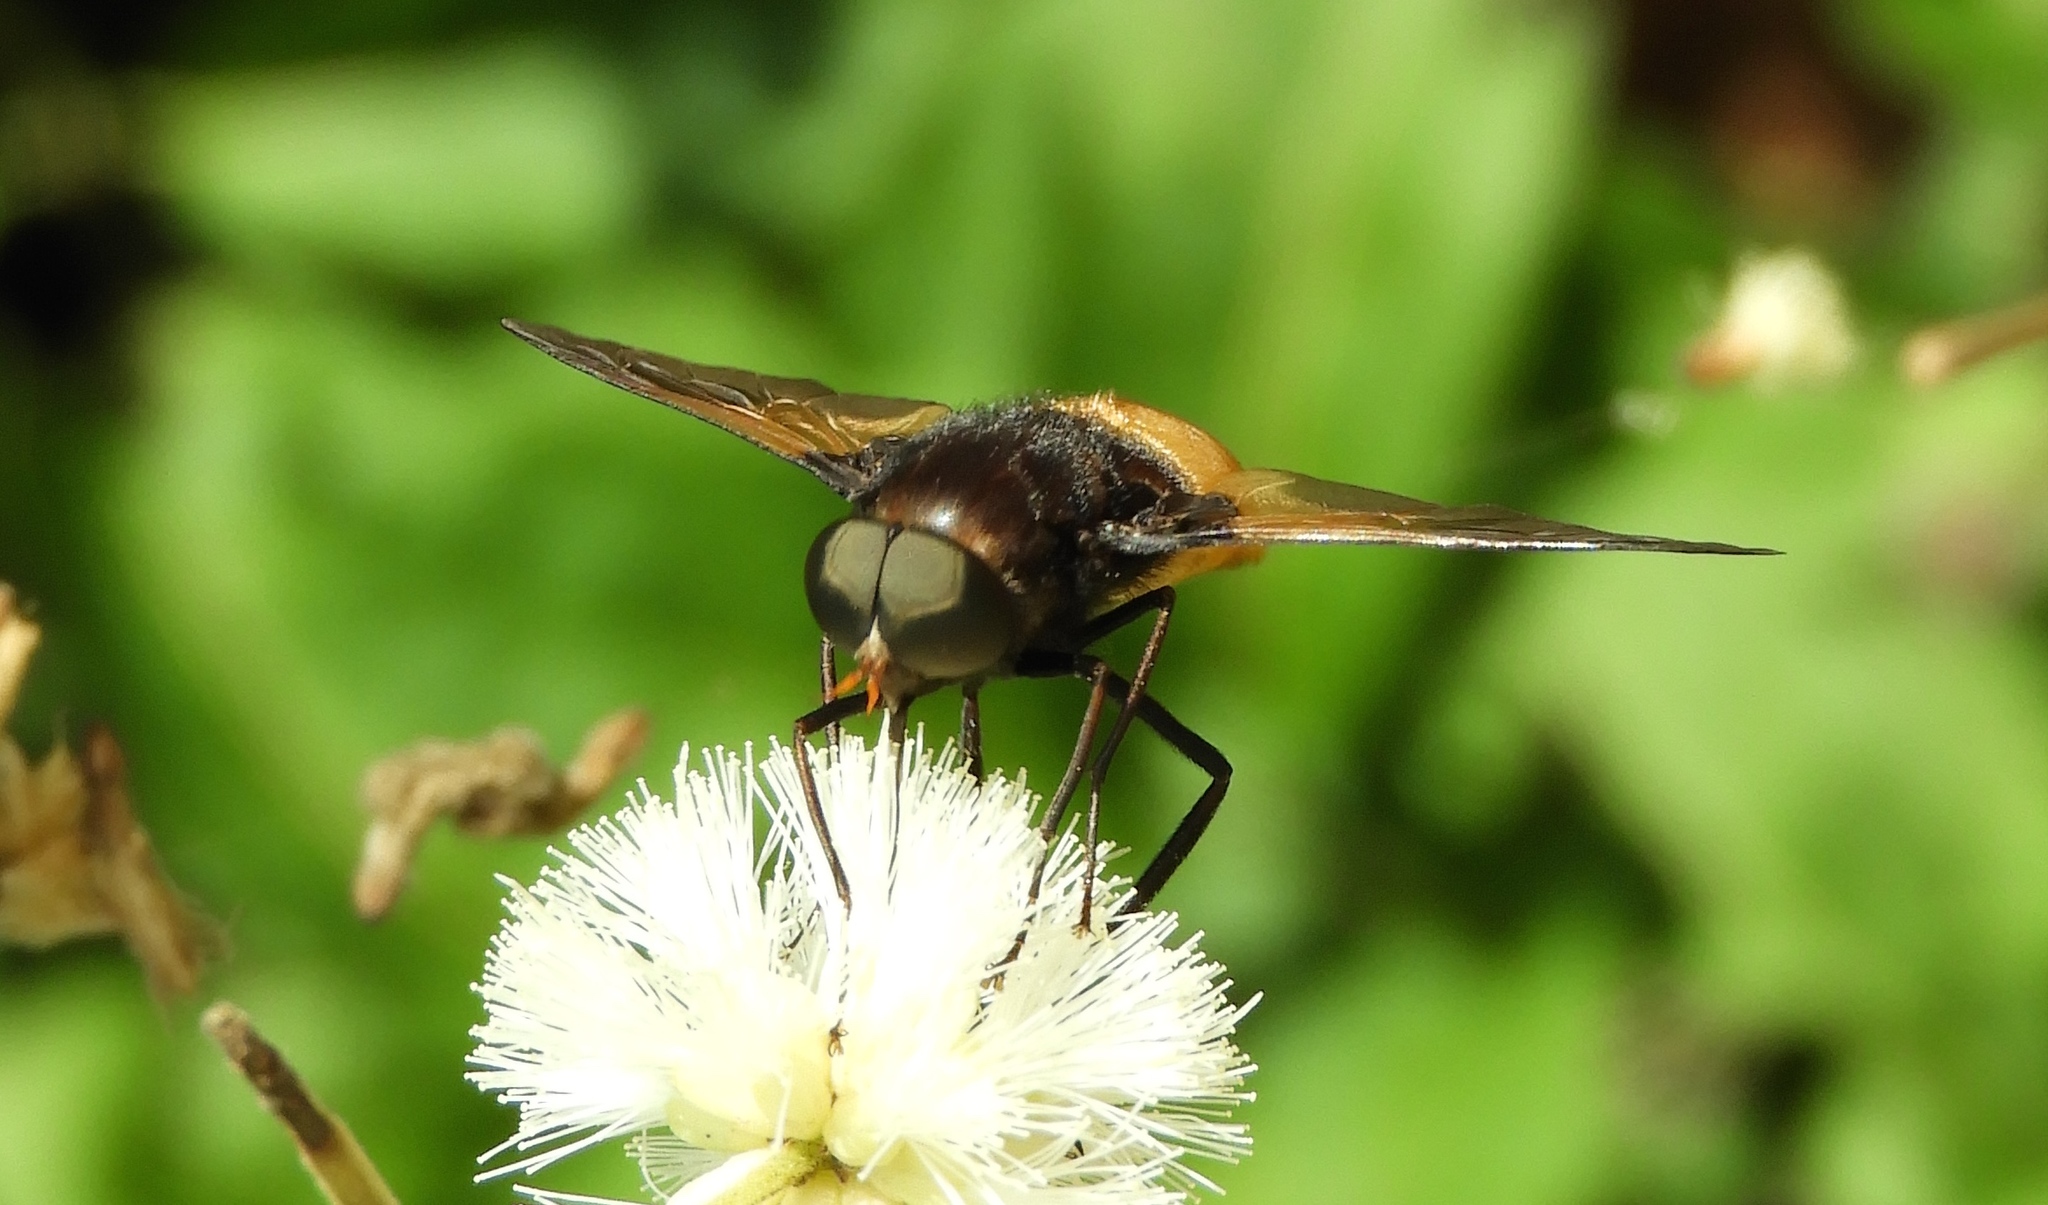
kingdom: Animalia
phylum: Arthropoda
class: Insecta
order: Diptera
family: Tabanidae
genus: Esenbeckia
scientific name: Esenbeckia
